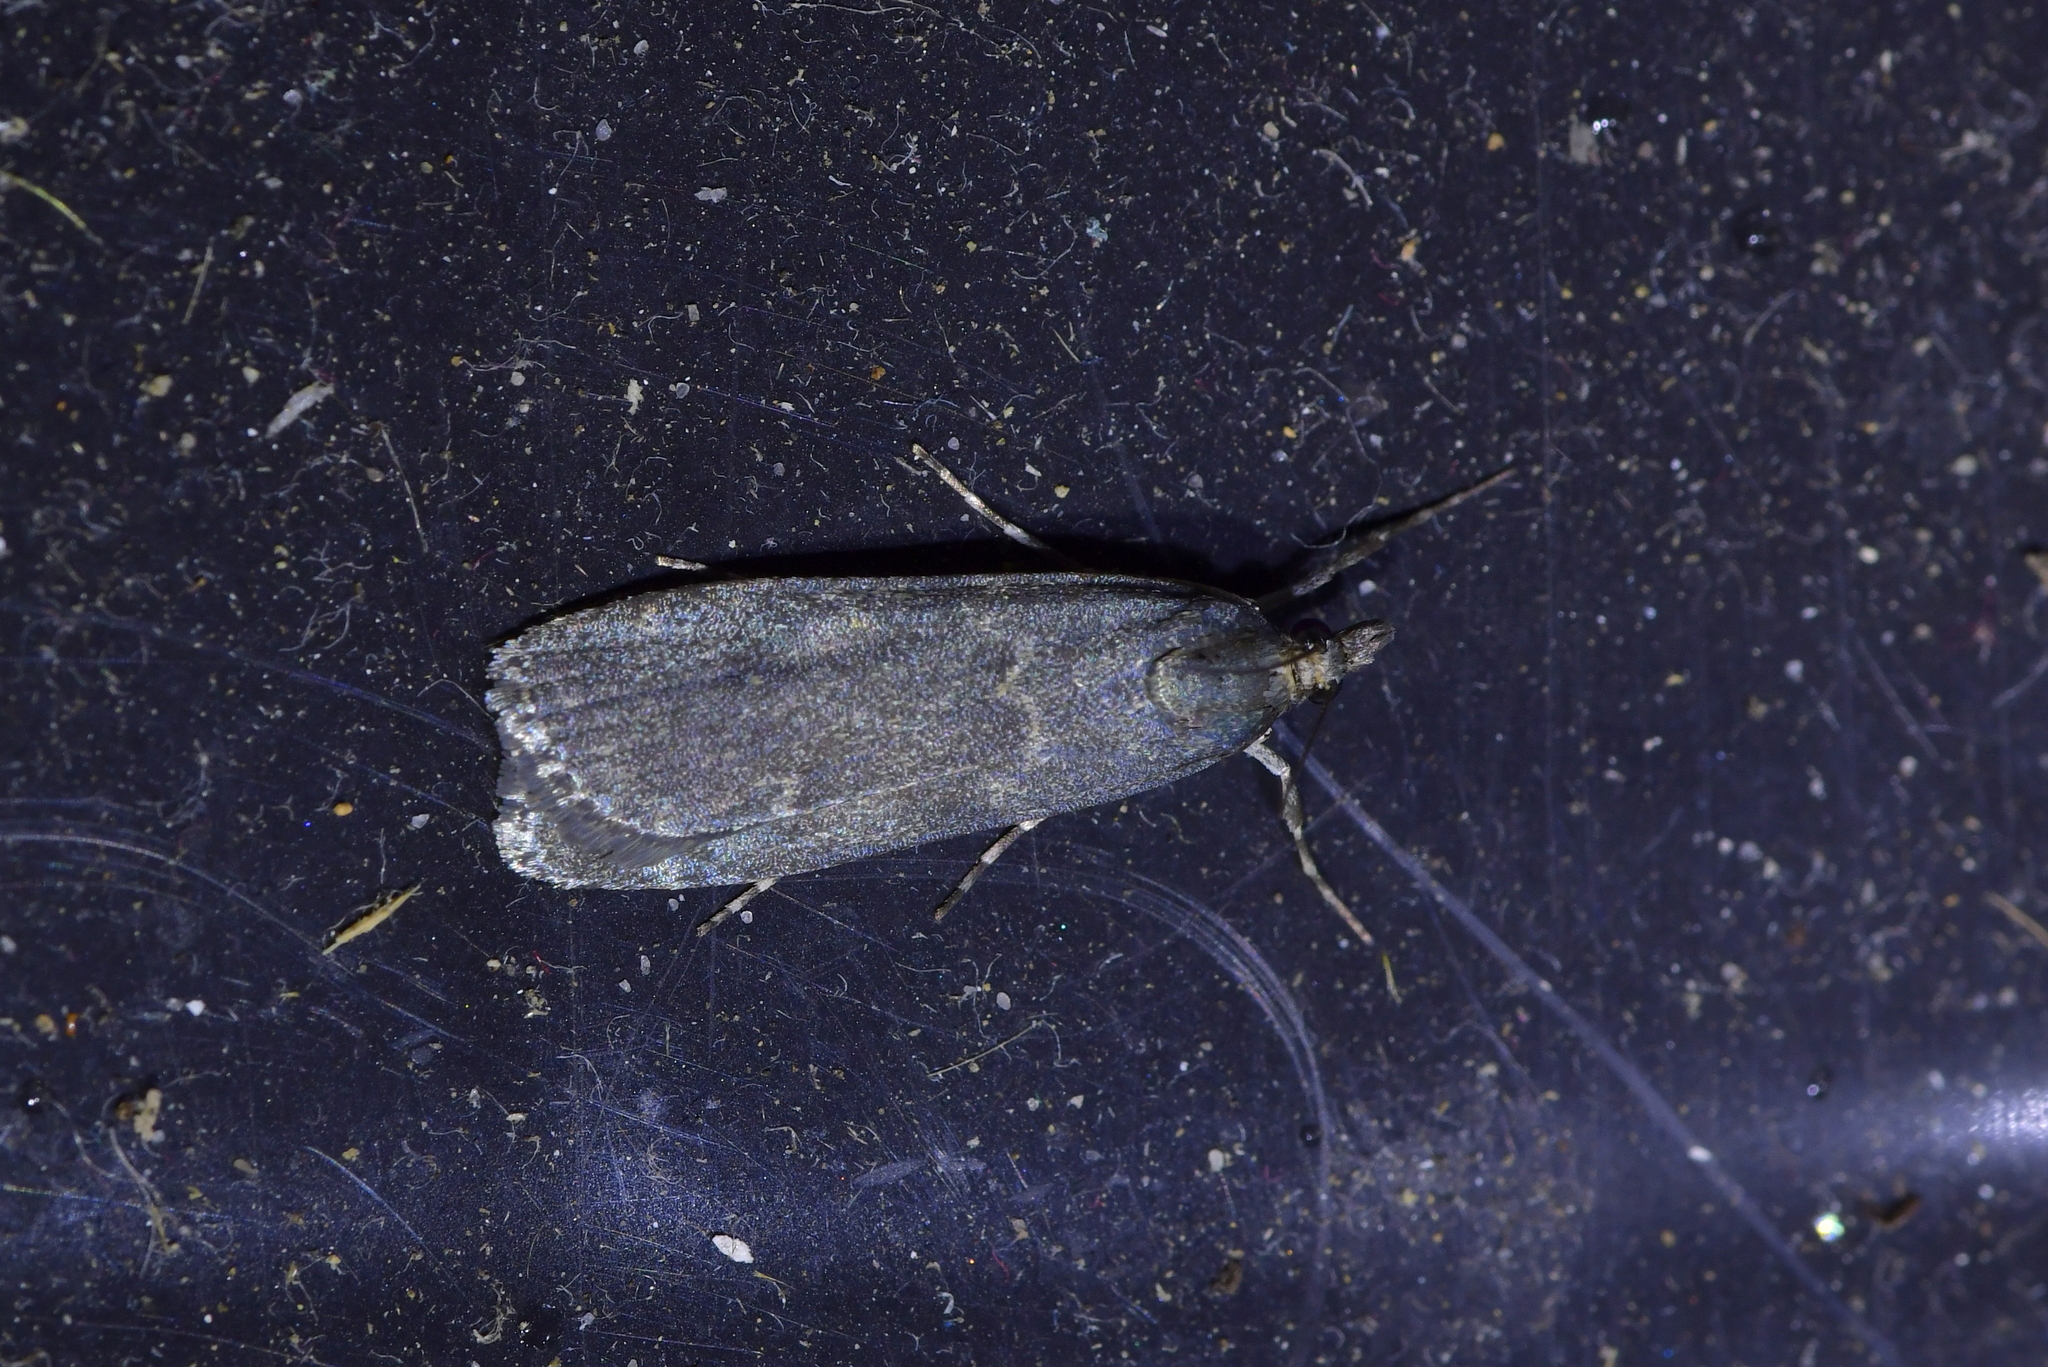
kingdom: Animalia
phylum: Arthropoda
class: Insecta
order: Lepidoptera
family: Crambidae
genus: Eudonia
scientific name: Eudonia cataxesta
